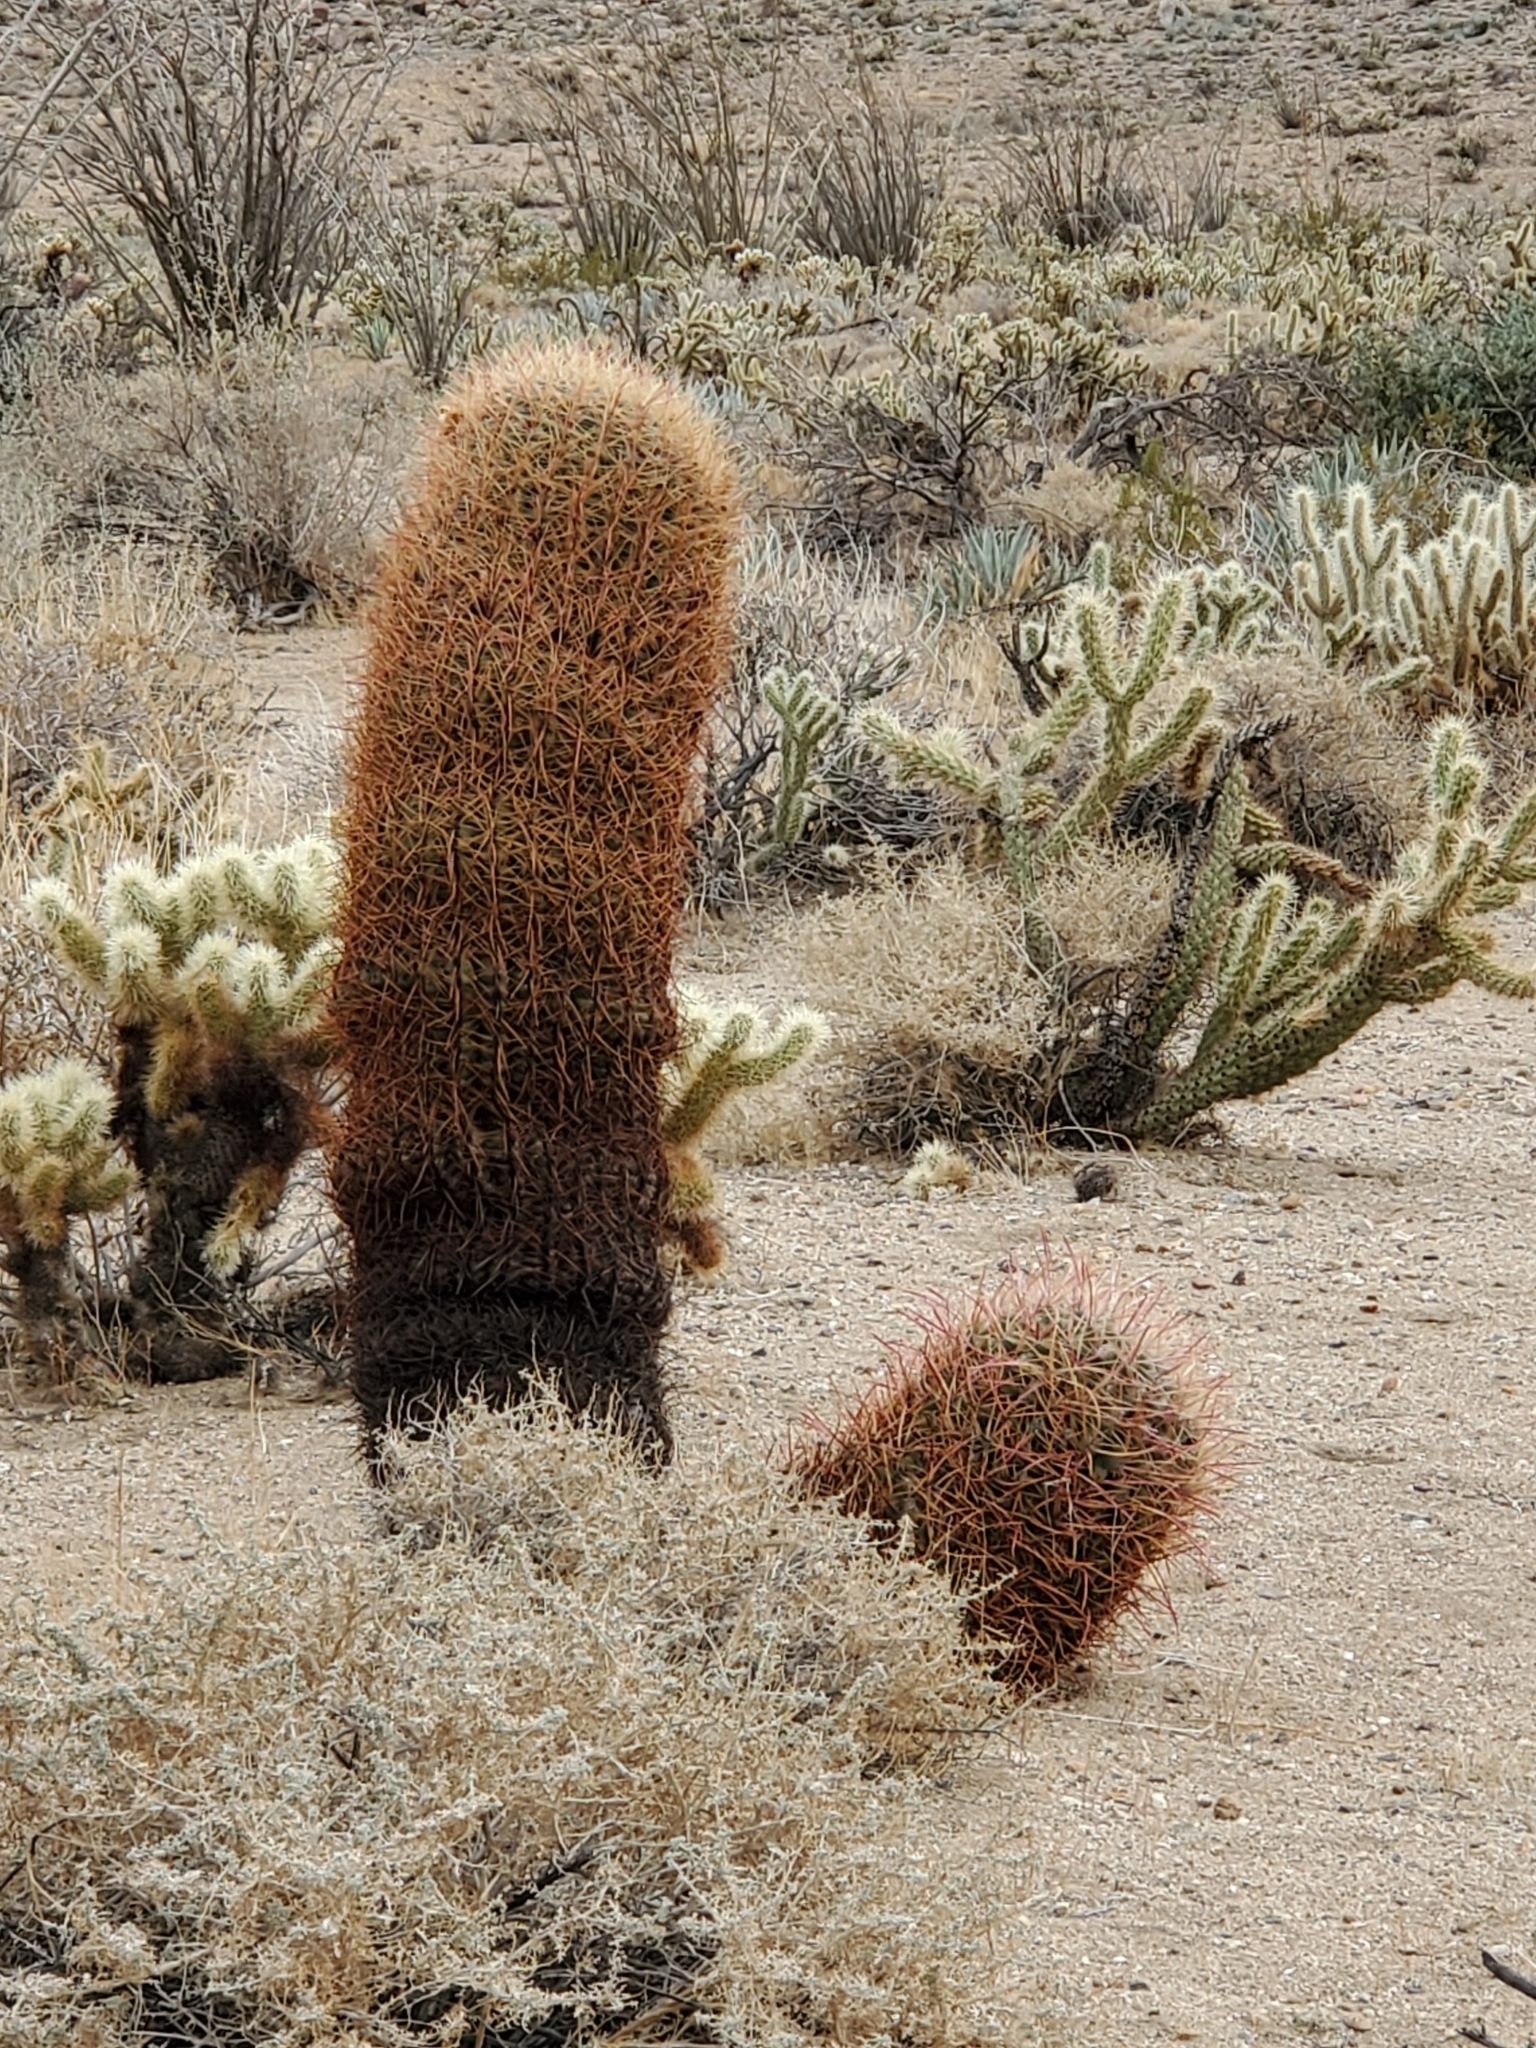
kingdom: Plantae
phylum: Tracheophyta
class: Magnoliopsida
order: Caryophyllales
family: Cactaceae
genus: Ferocactus
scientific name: Ferocactus cylindraceus
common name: California barrel cactus
